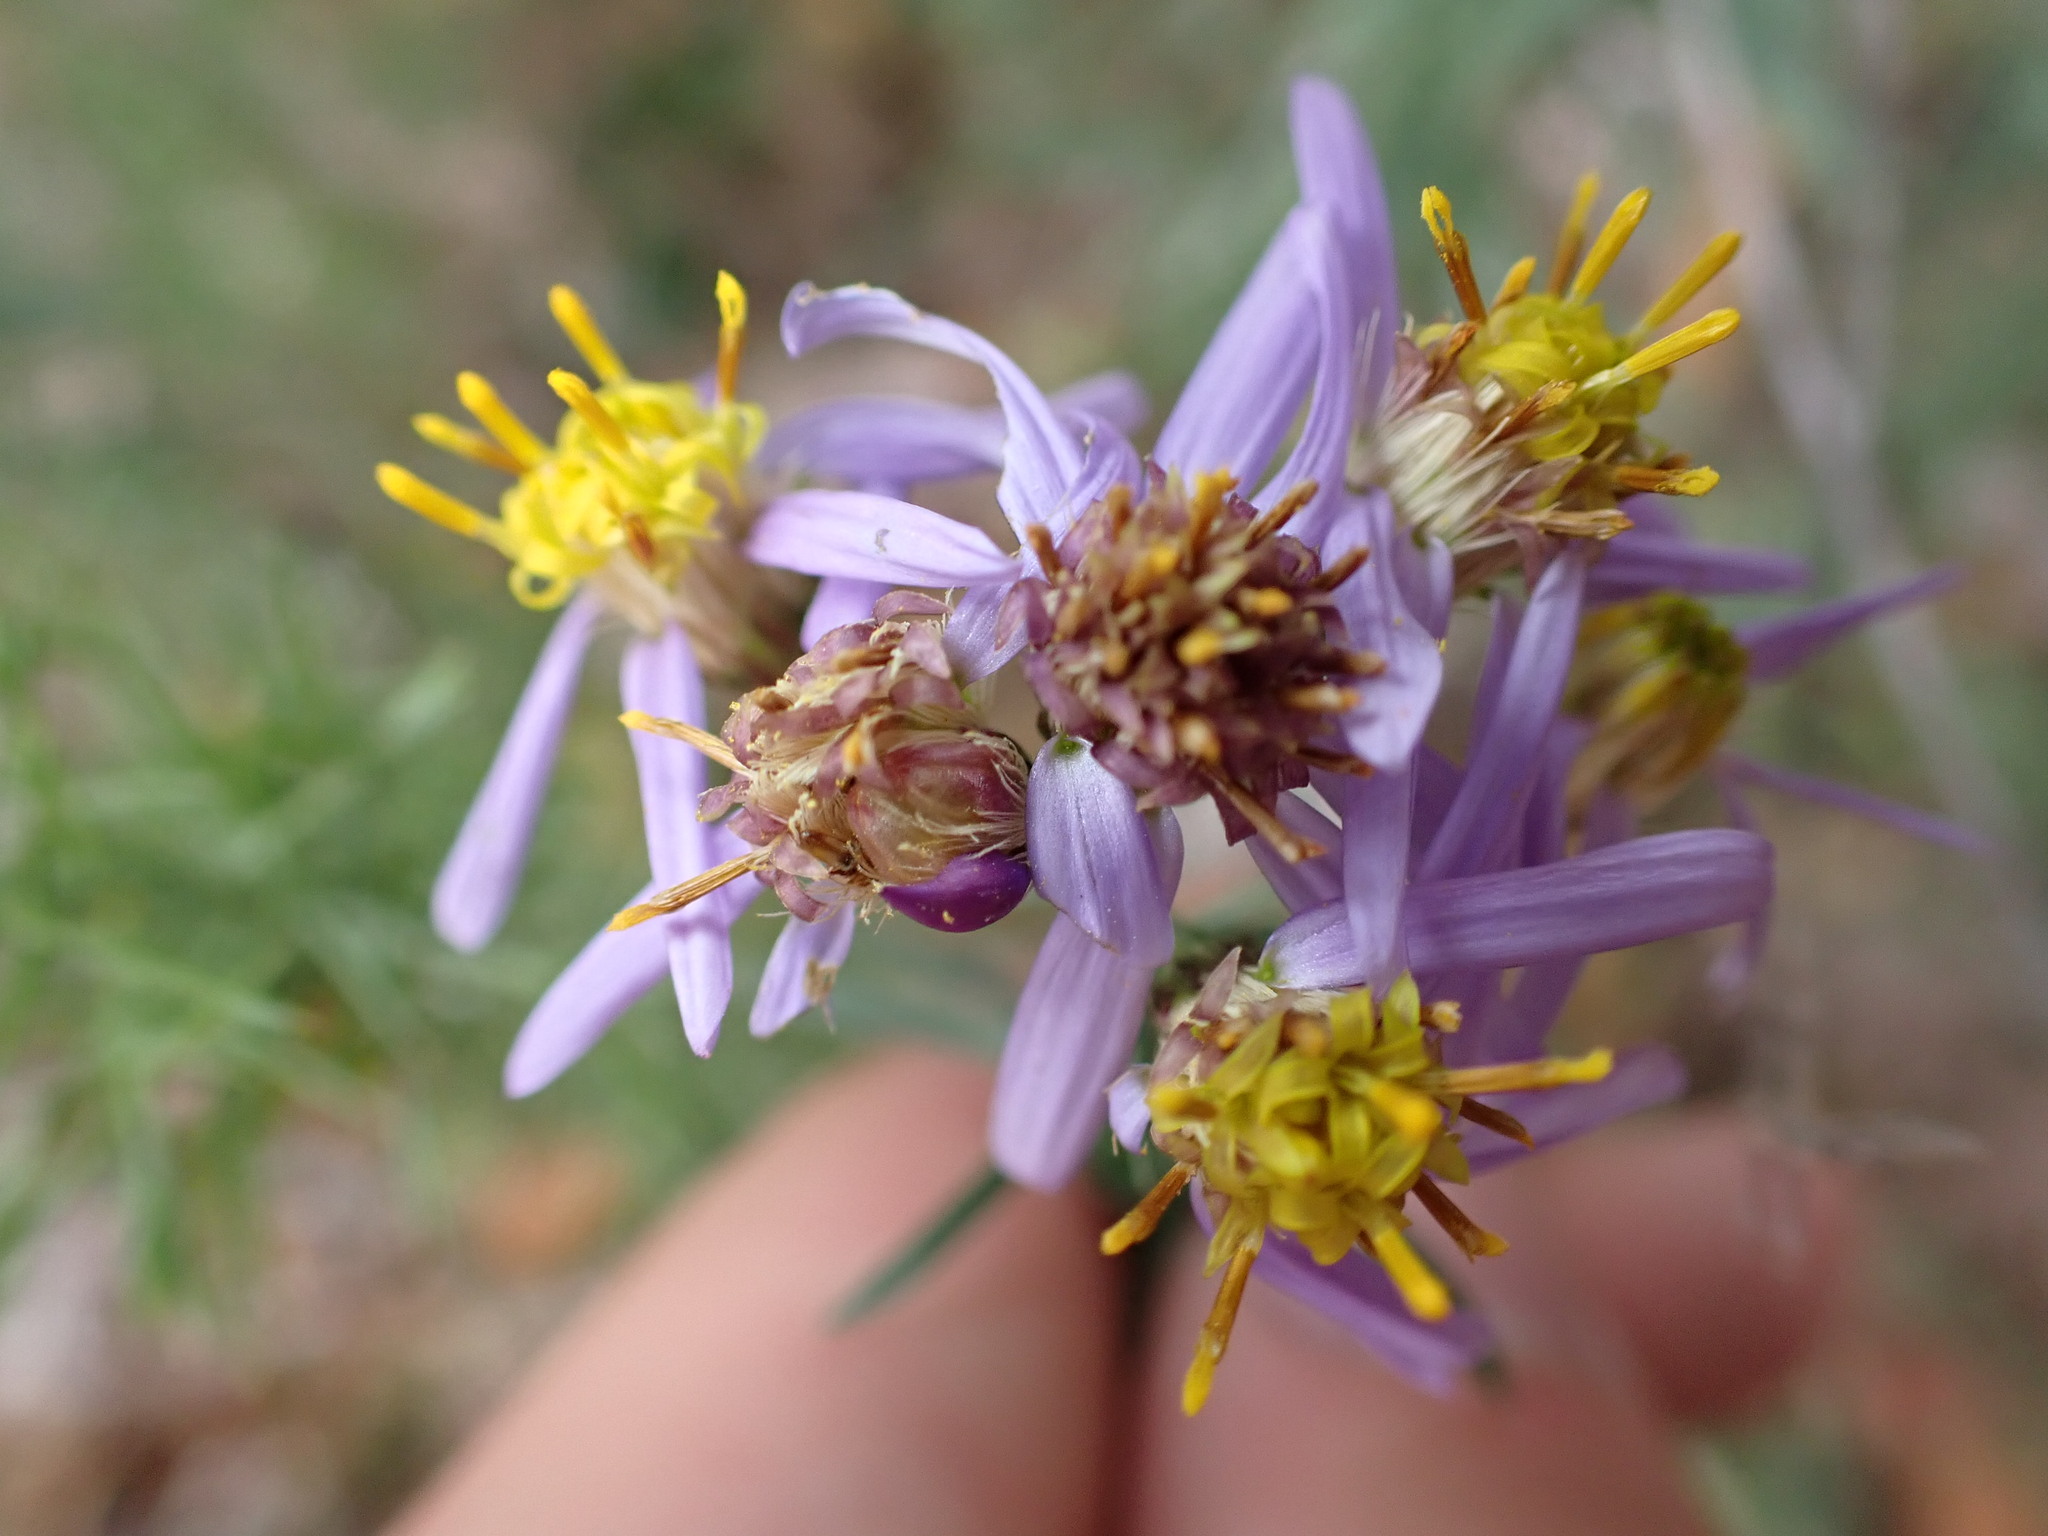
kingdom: Plantae
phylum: Tracheophyta
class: Magnoliopsida
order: Asterales
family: Asteraceae
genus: Galatella
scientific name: Galatella sedifolia
